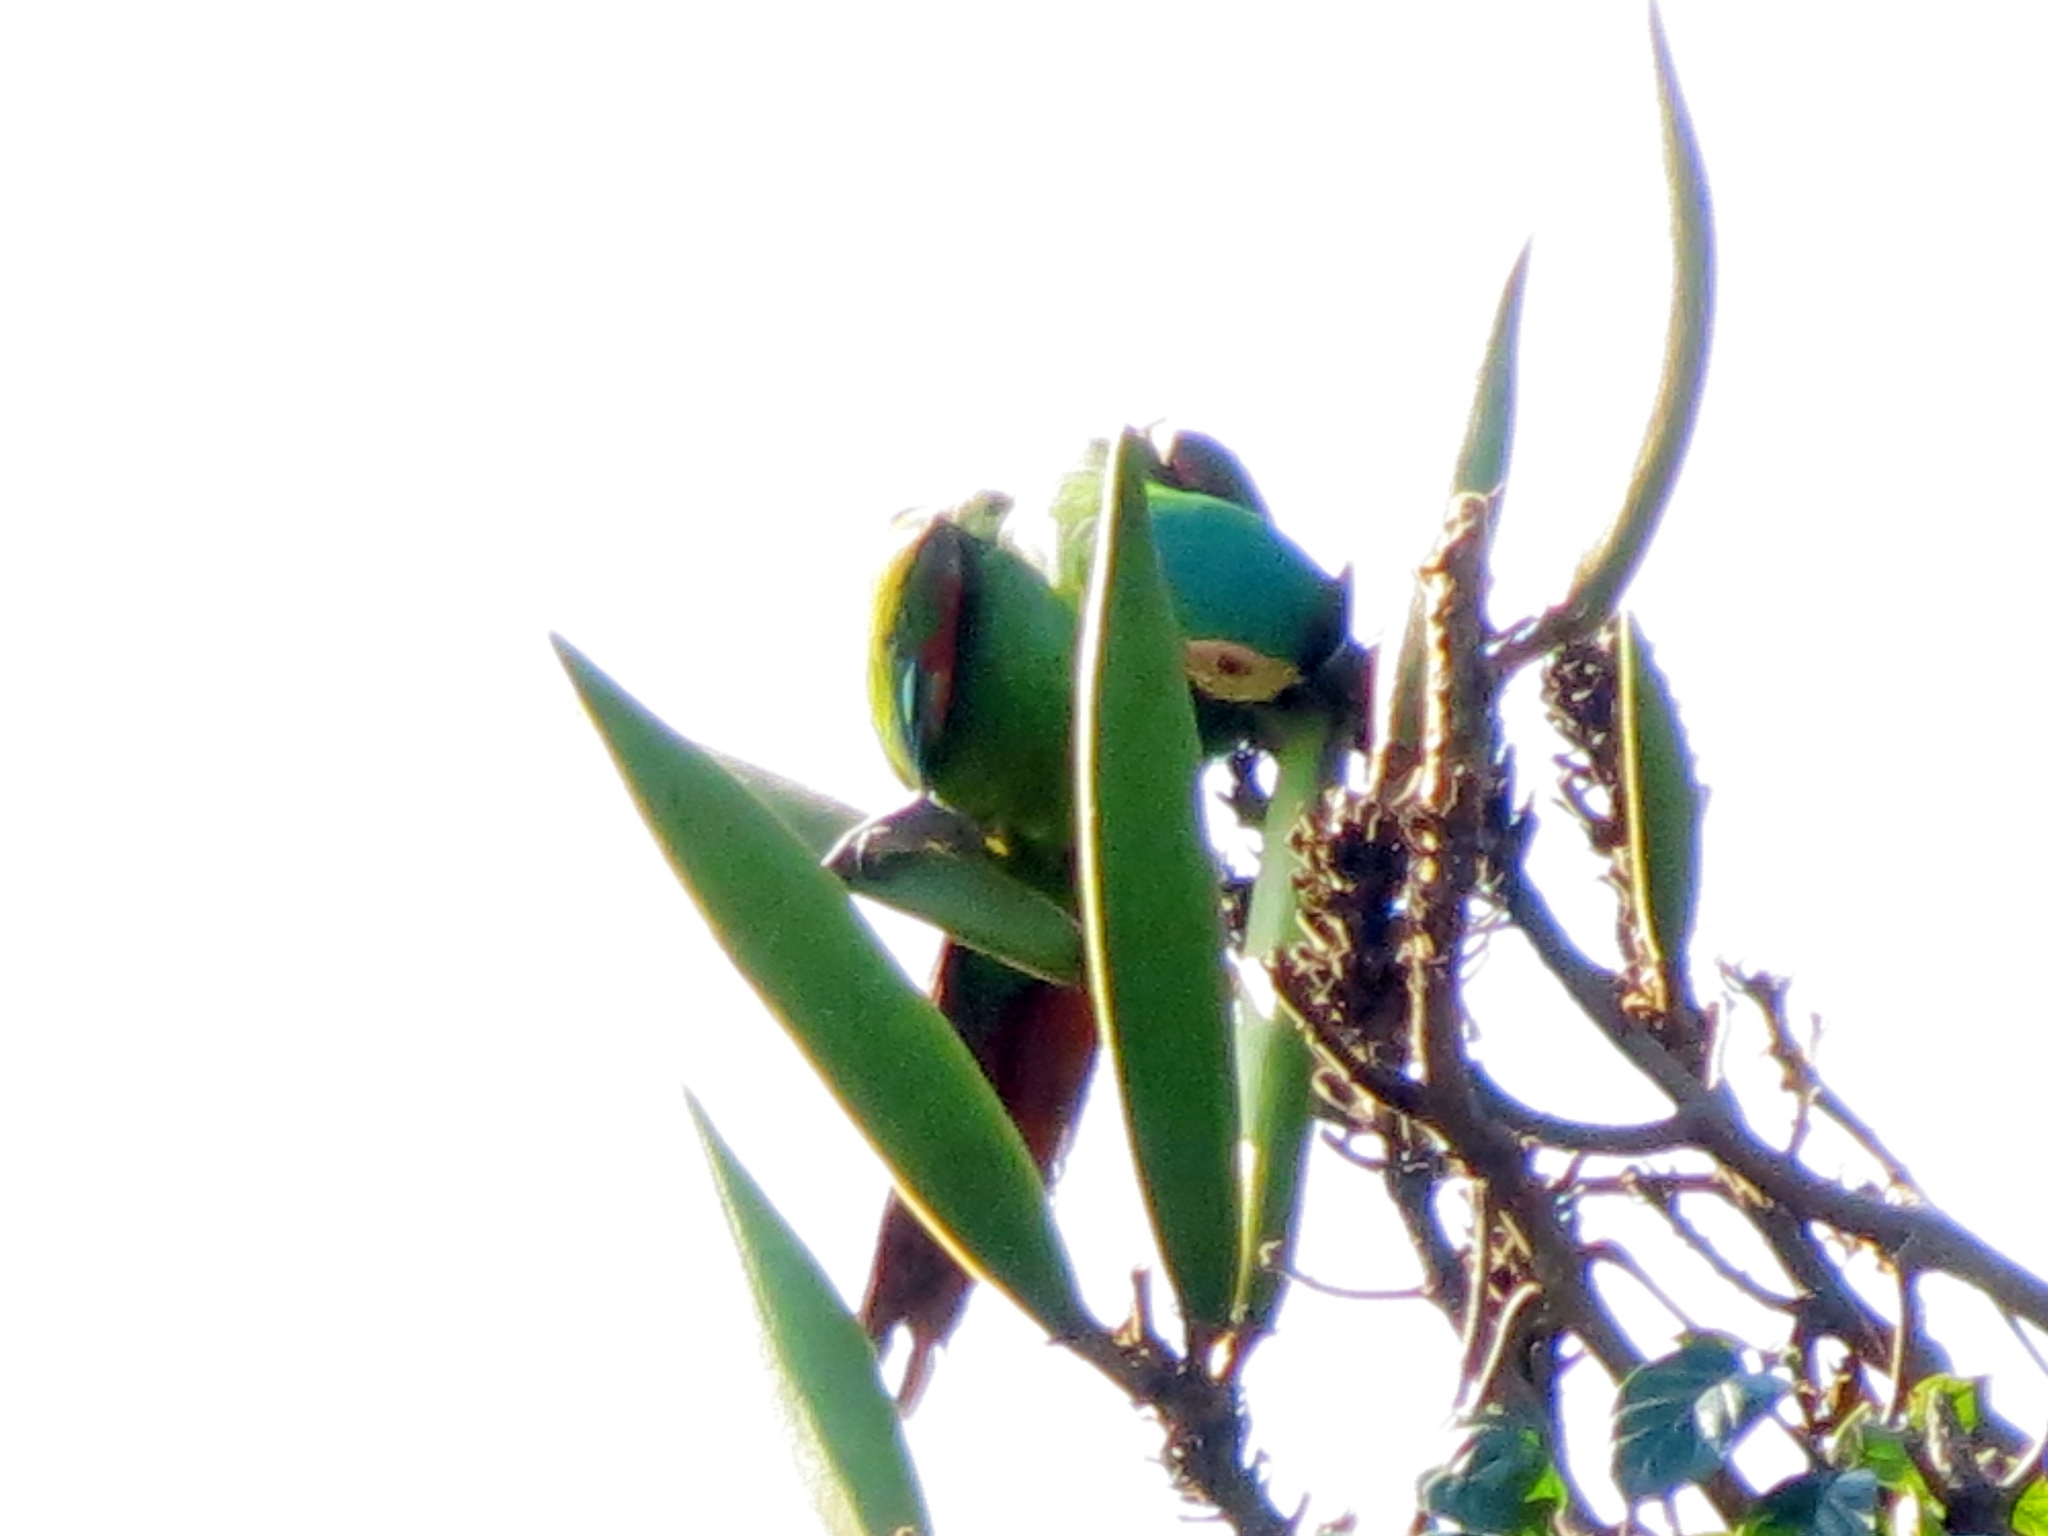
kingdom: Animalia
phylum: Chordata
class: Aves
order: Psittaciformes
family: Psittacidae
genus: Ara
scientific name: Ara severus
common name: Chestnut-fronted macaw
